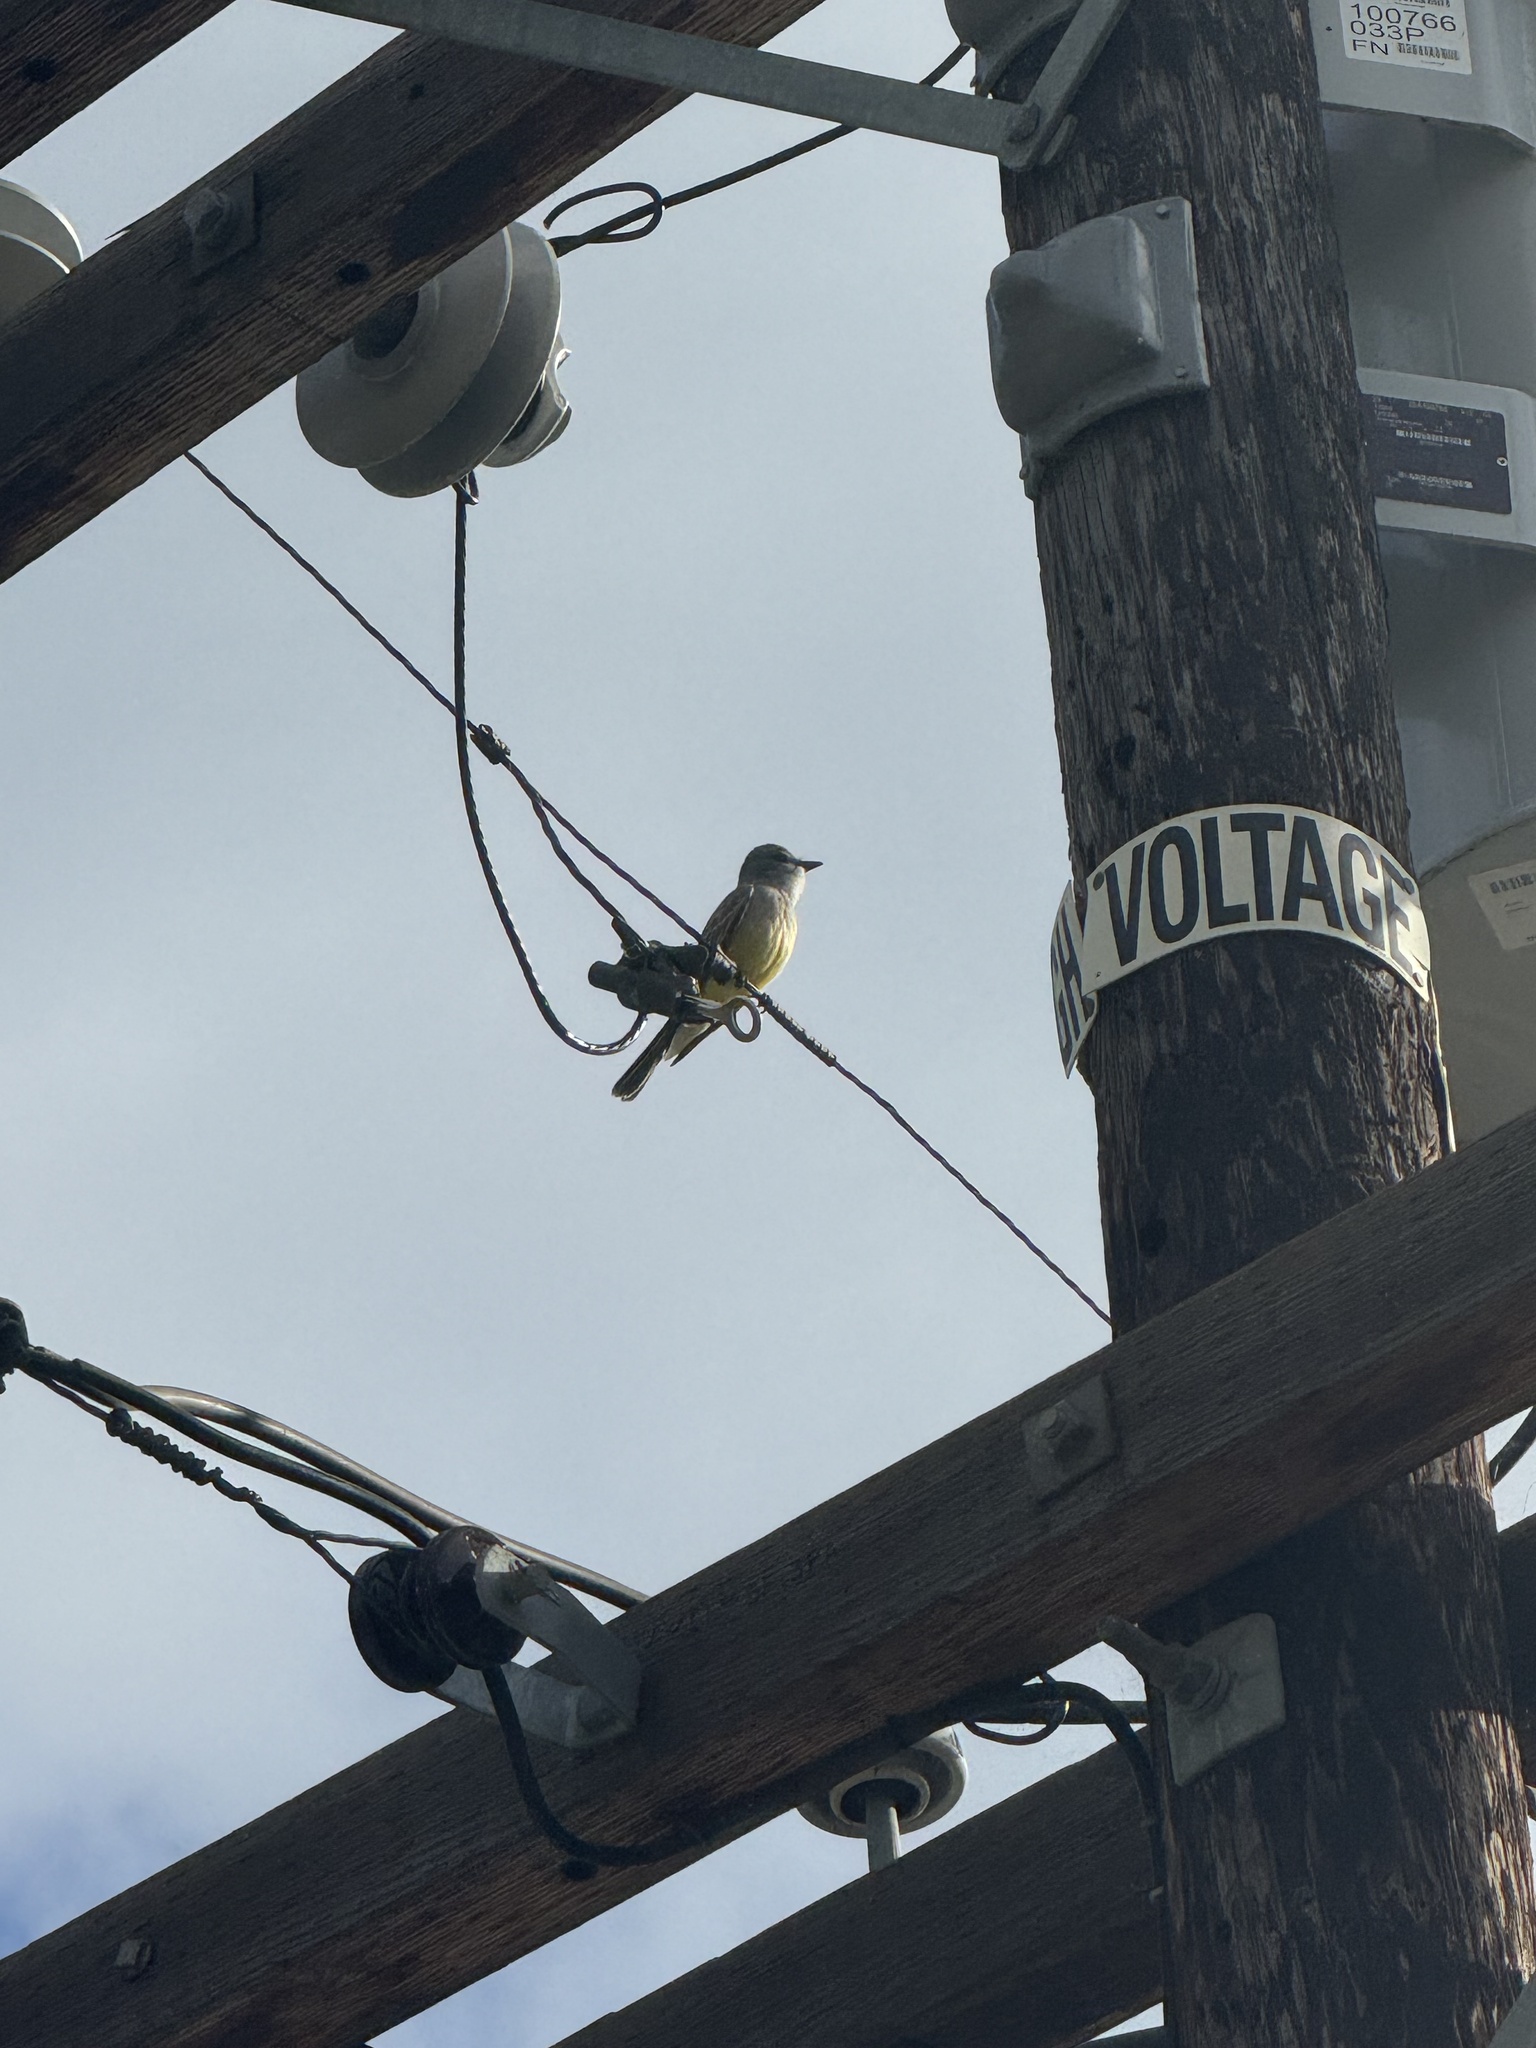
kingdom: Animalia
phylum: Chordata
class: Aves
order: Passeriformes
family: Tyrannidae
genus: Tyrannus
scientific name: Tyrannus vociferans
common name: Cassin's kingbird
